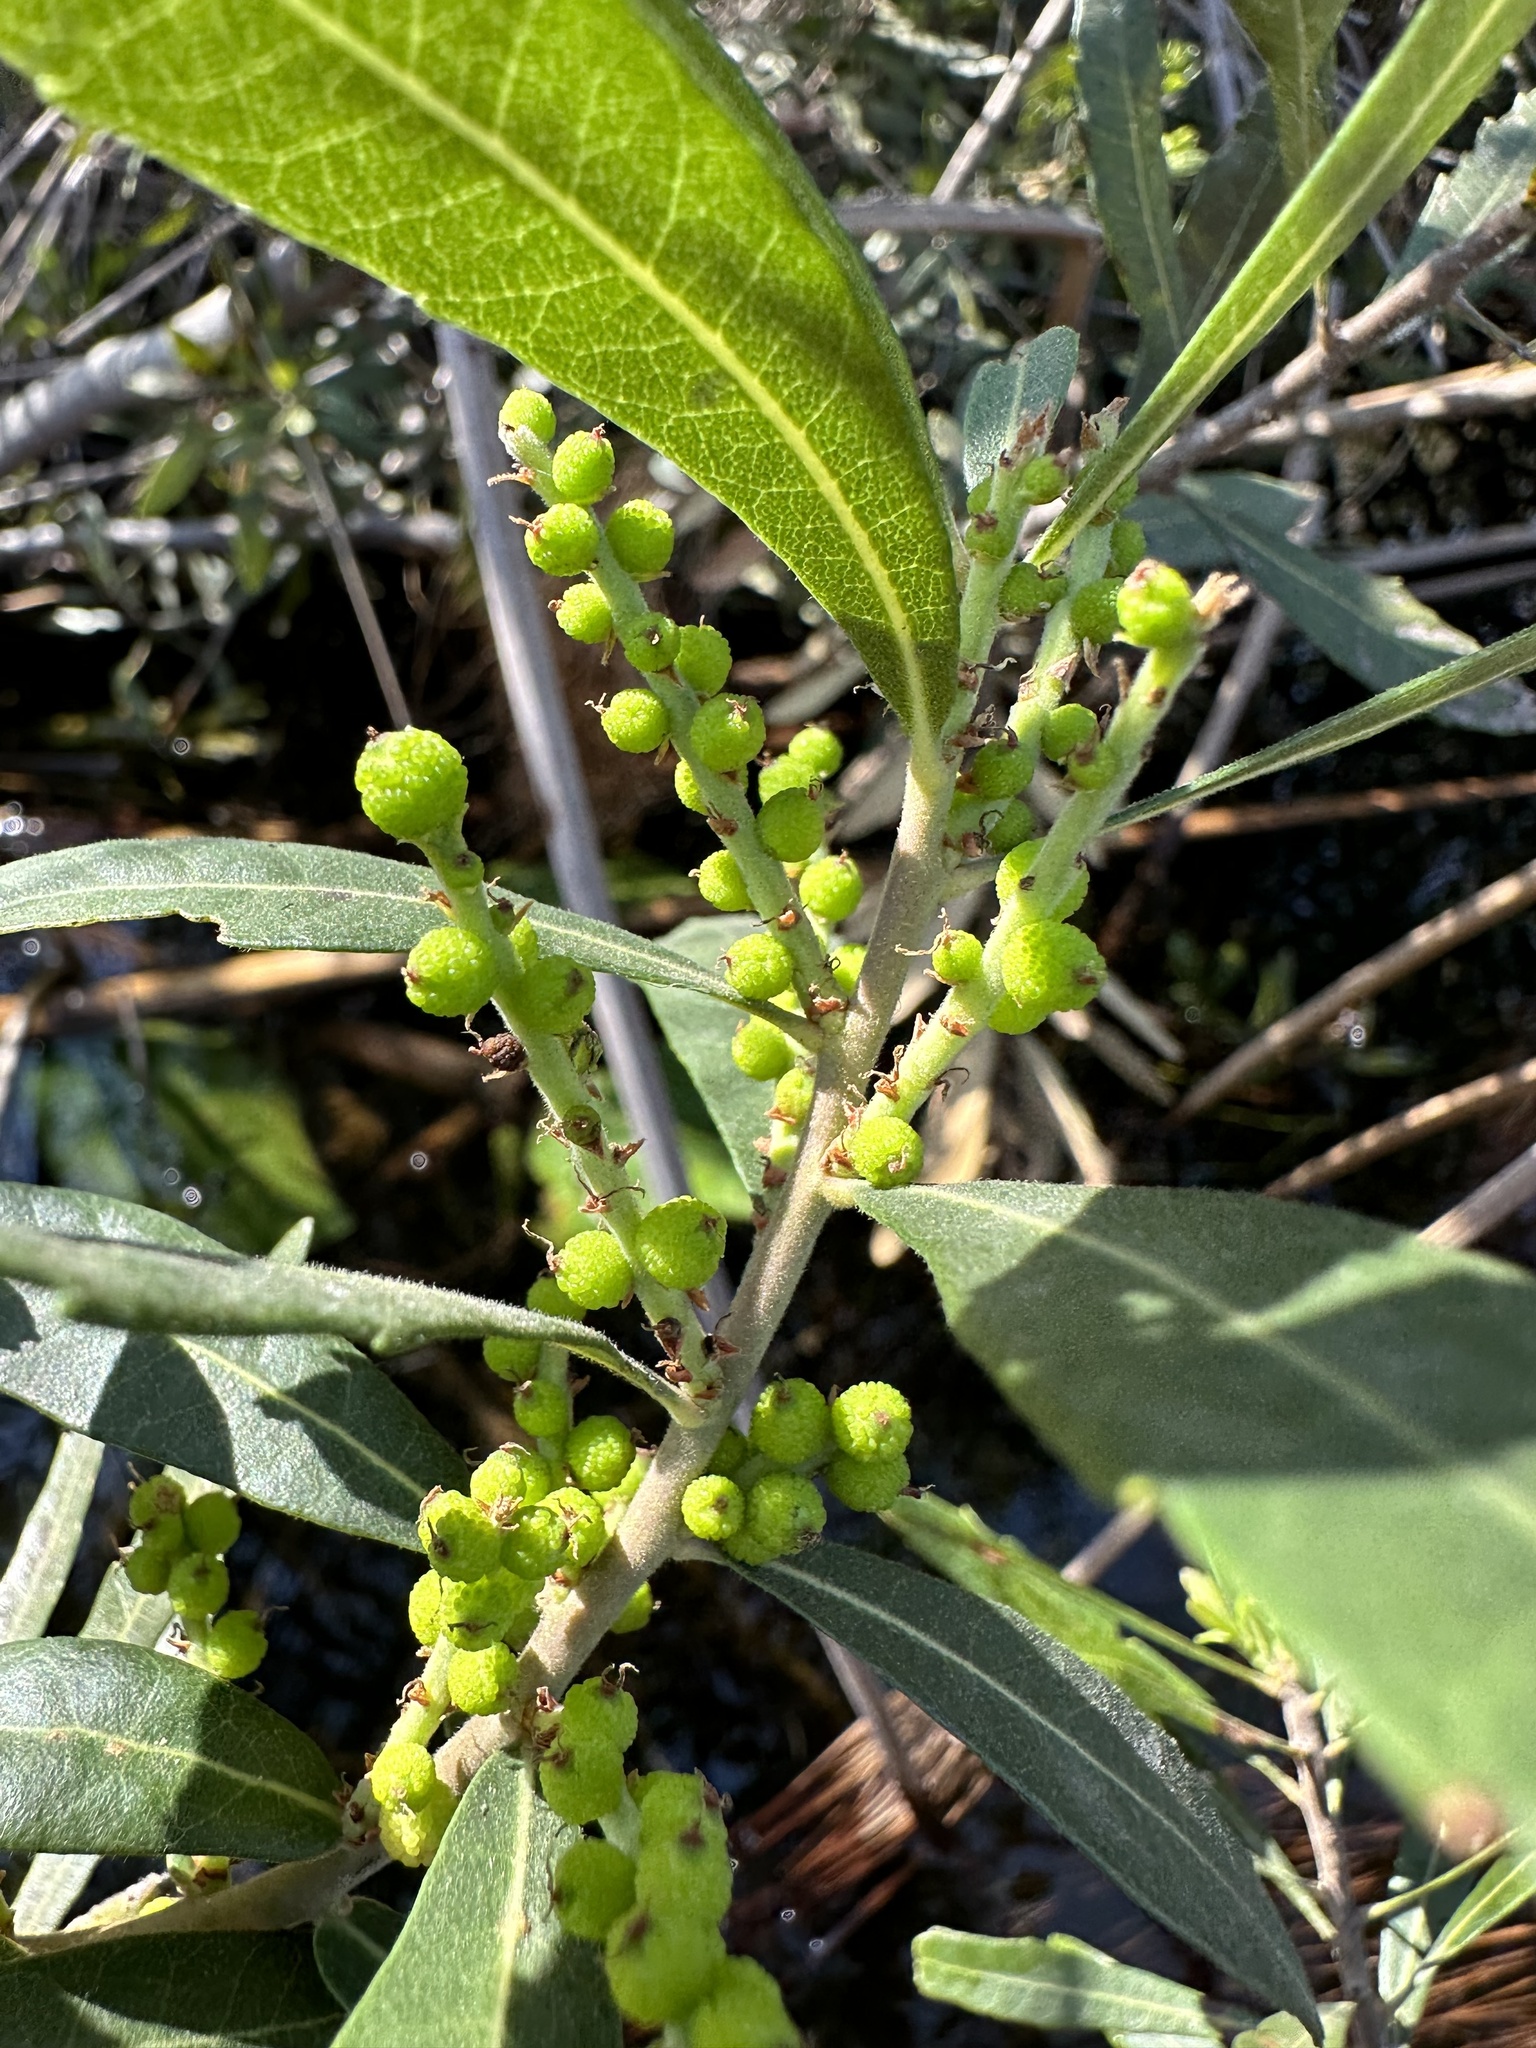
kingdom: Plantae
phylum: Tracheophyta
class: Magnoliopsida
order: Fagales
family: Myricaceae
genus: Morella
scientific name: Morella serrata
